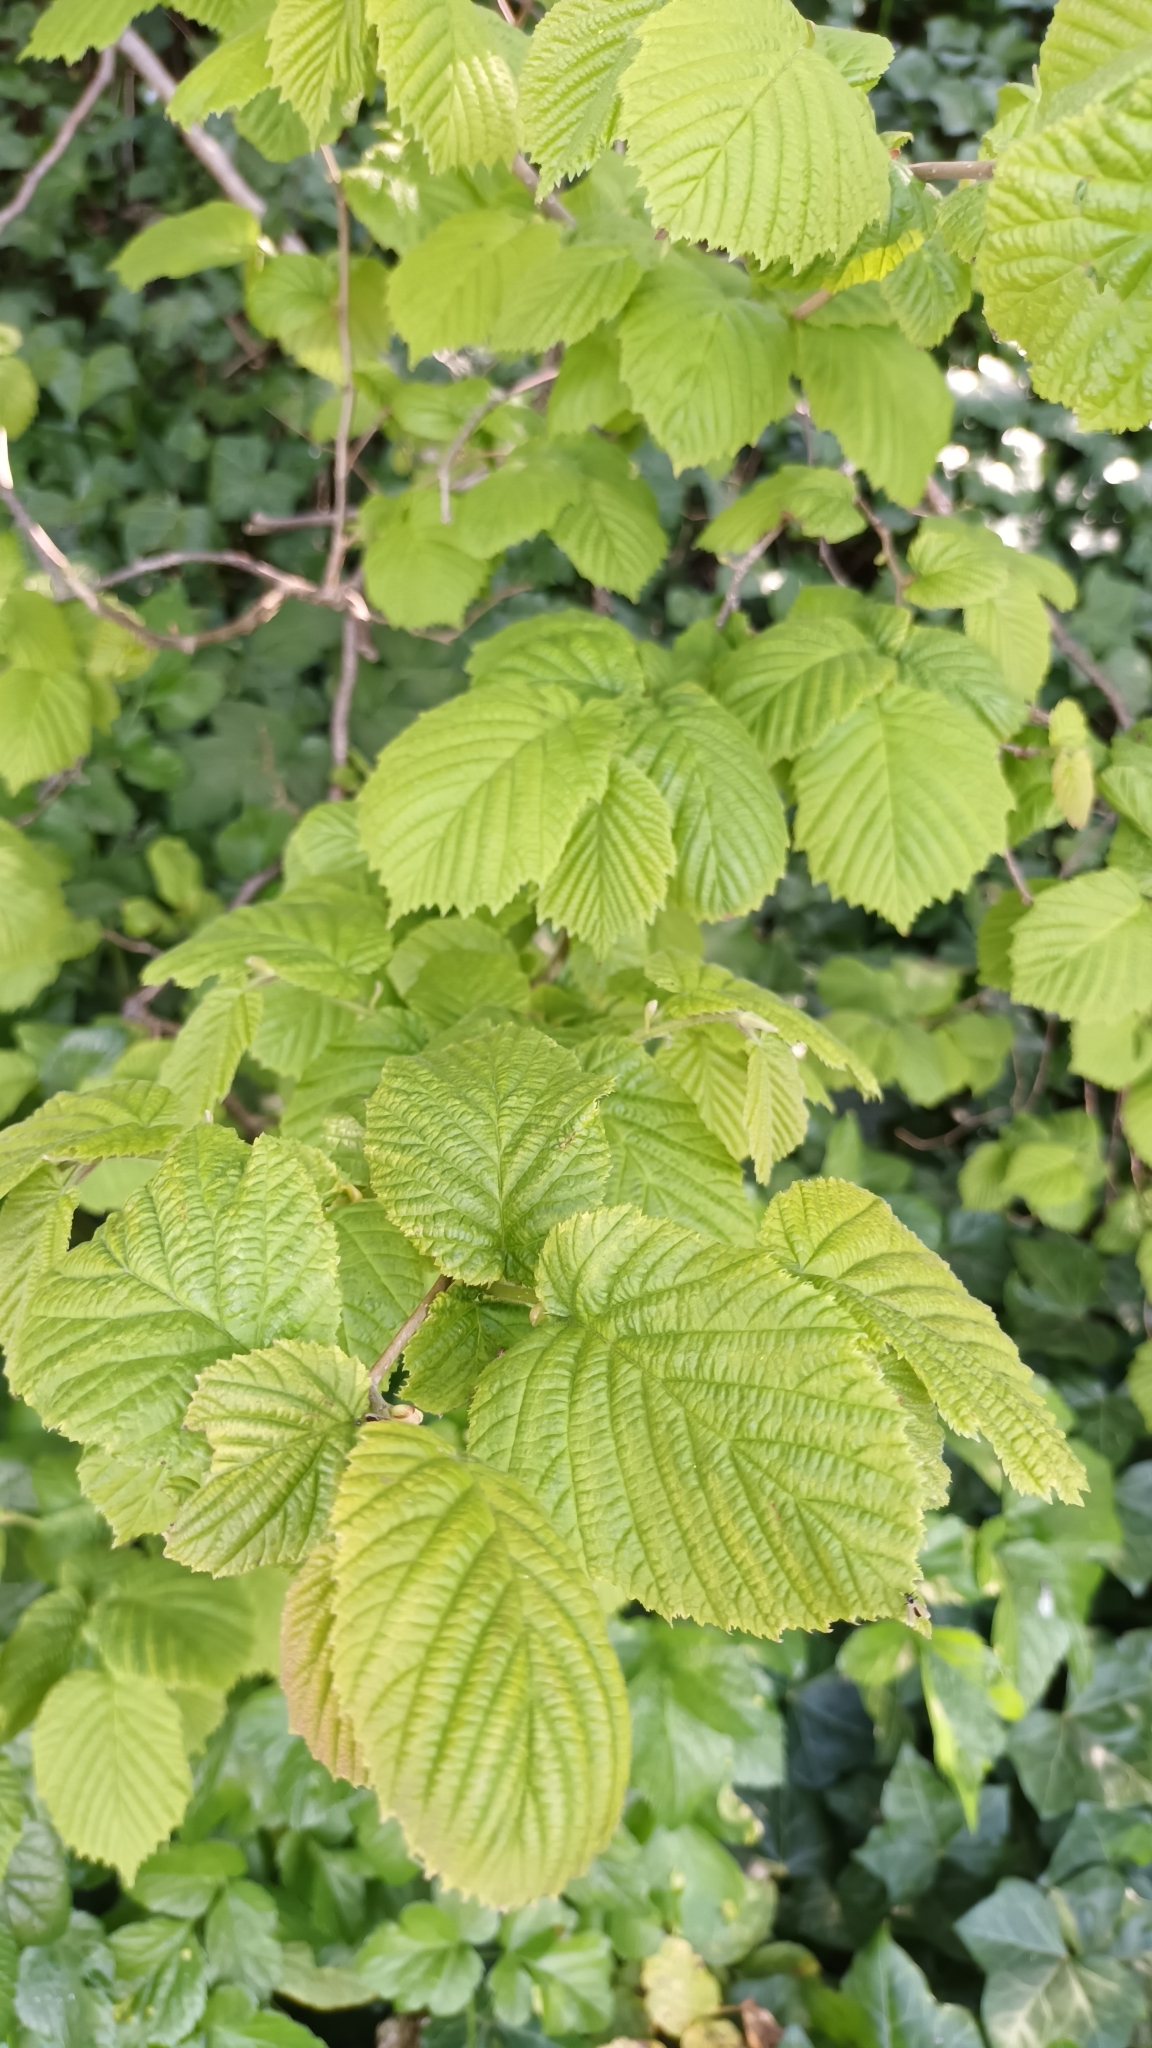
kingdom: Plantae
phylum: Tracheophyta
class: Magnoliopsida
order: Fagales
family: Betulaceae
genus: Corylus
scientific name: Corylus avellana
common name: European hazel
